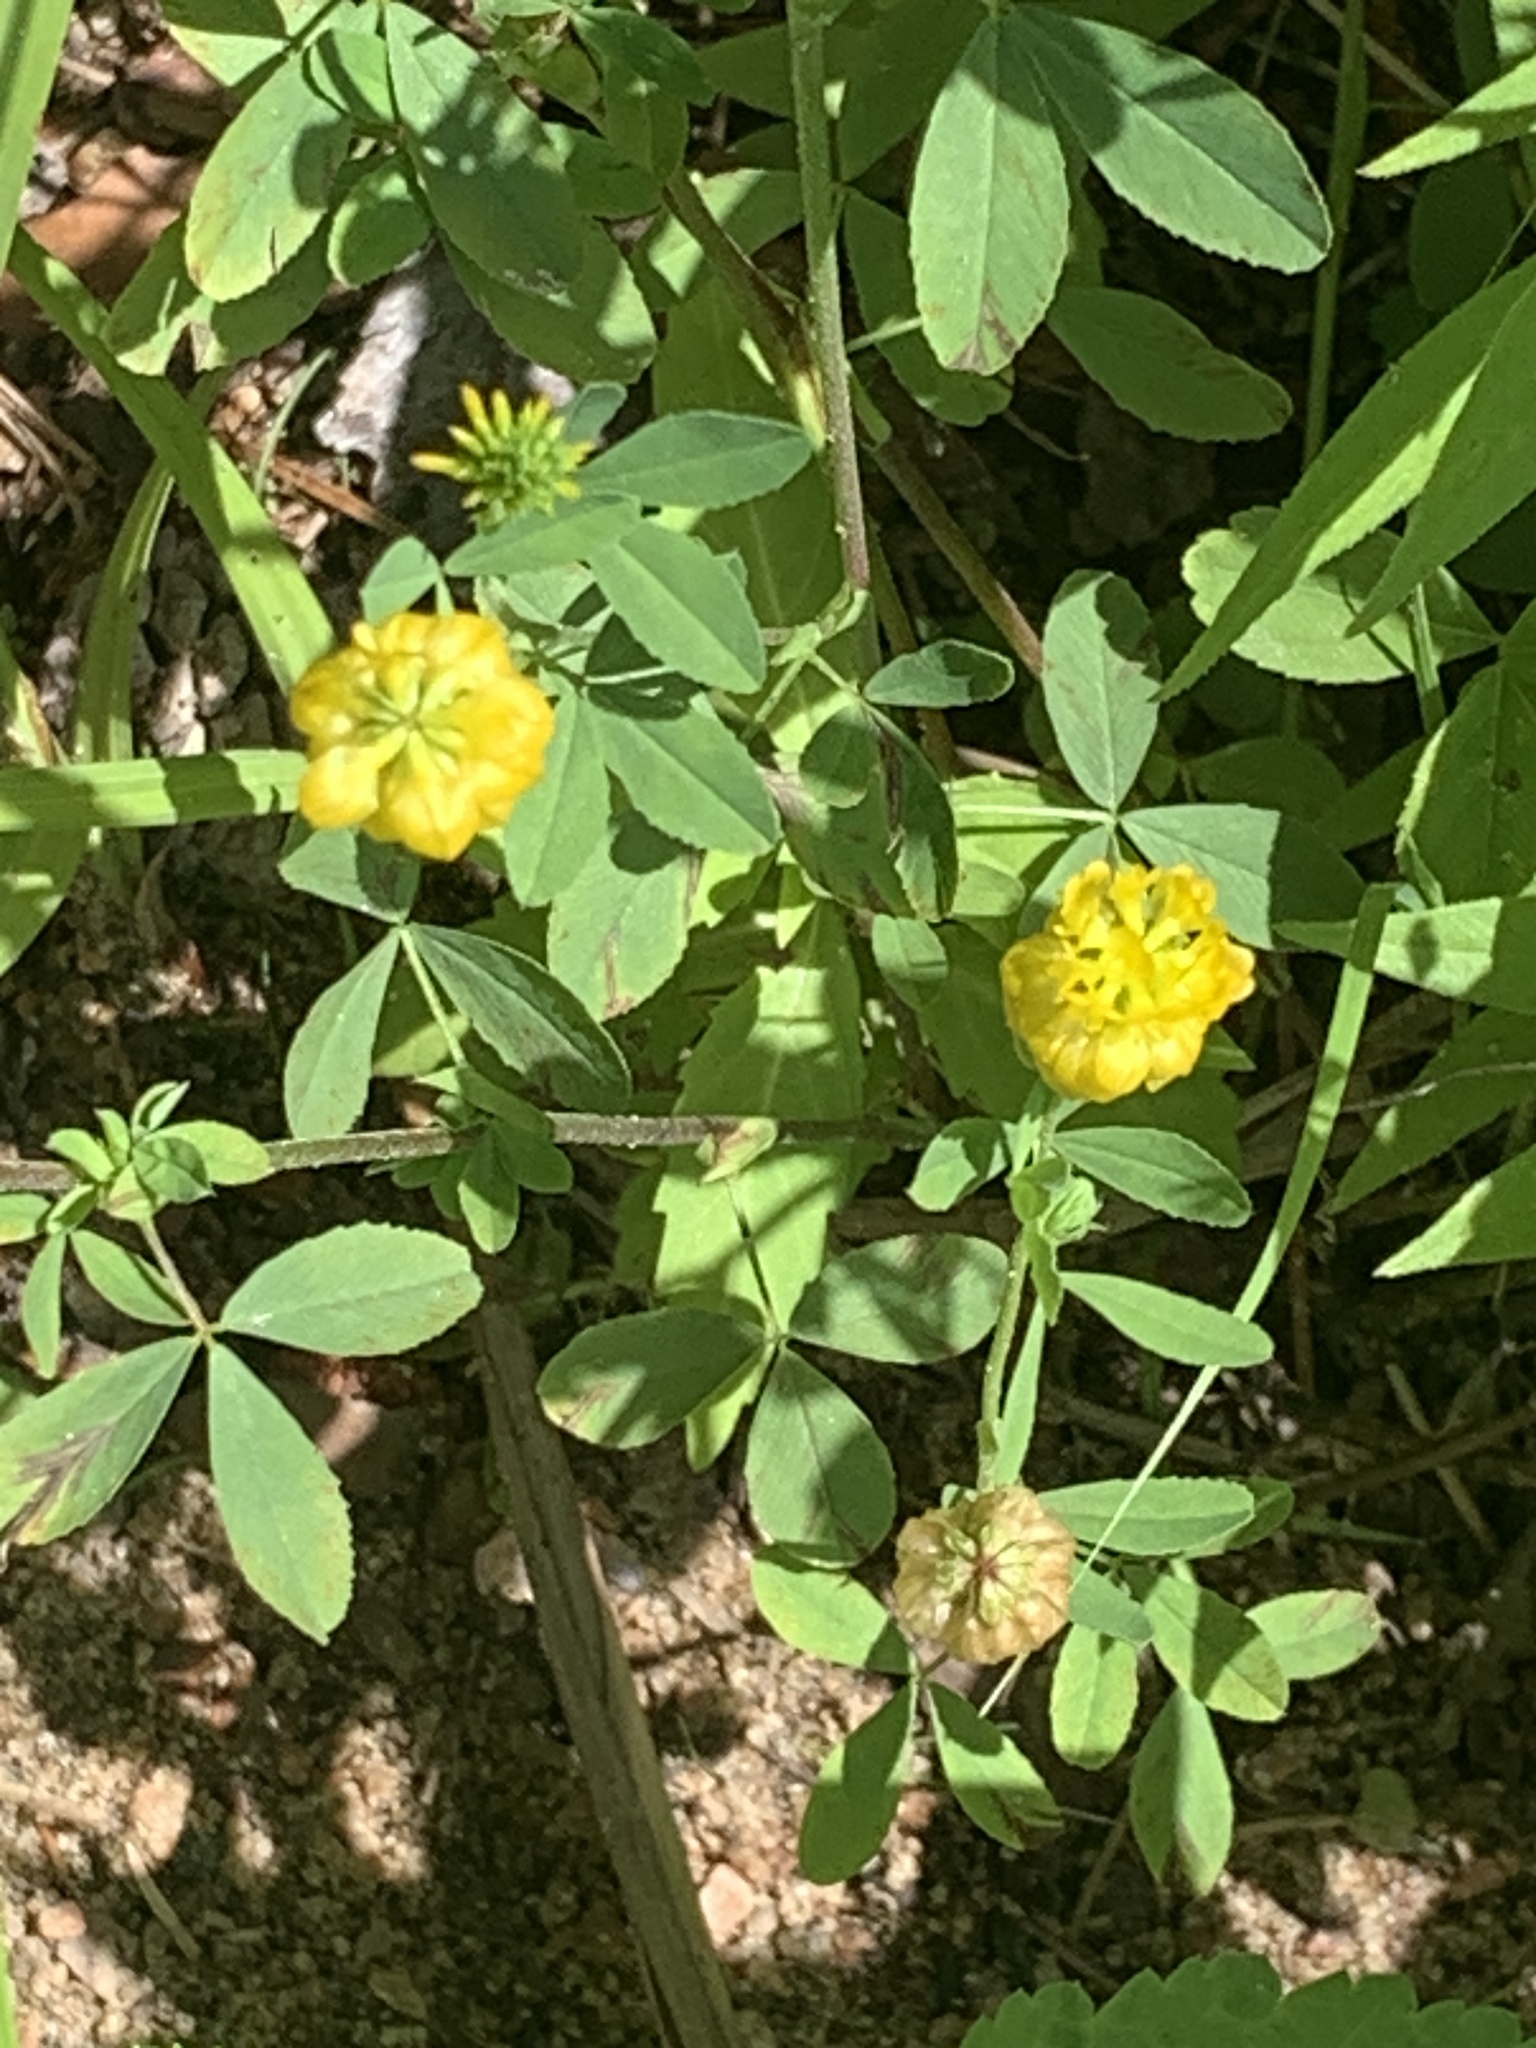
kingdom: Plantae
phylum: Tracheophyta
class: Magnoliopsida
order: Fabales
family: Fabaceae
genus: Trifolium
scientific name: Trifolium aureum
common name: Golden clover
